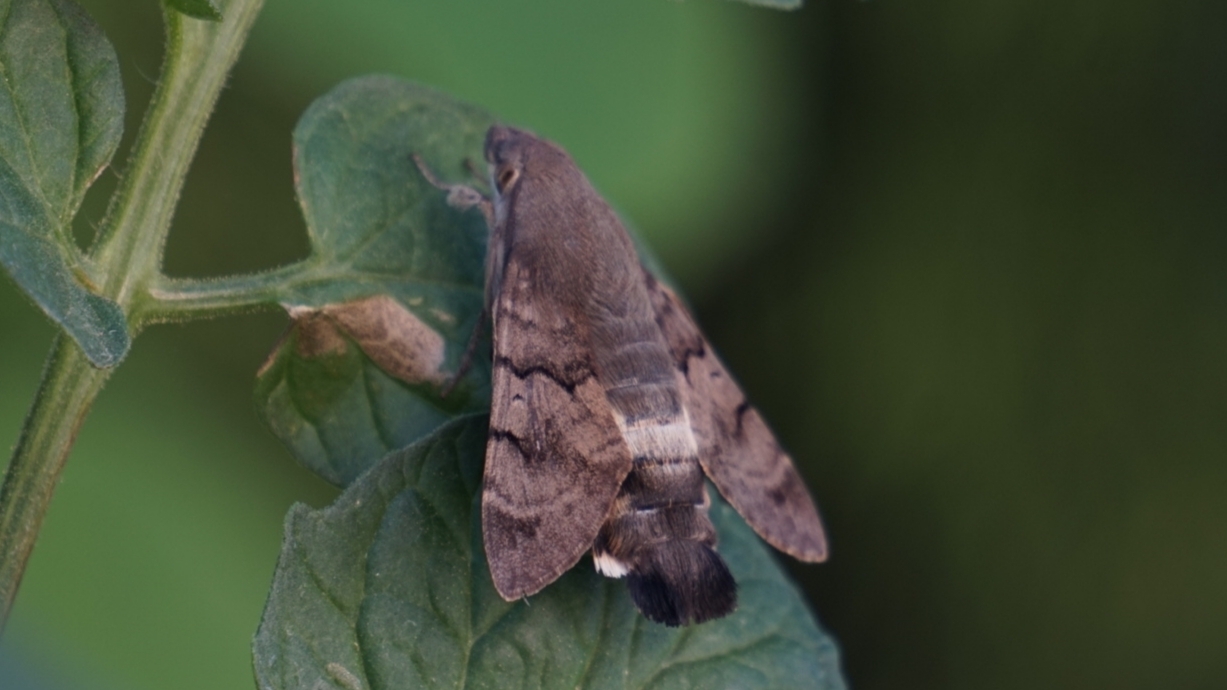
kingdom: Animalia
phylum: Arthropoda
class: Insecta
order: Lepidoptera
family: Sphingidae
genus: Macroglossum
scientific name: Macroglossum stellatarum
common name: Humming-bird hawk-moth
